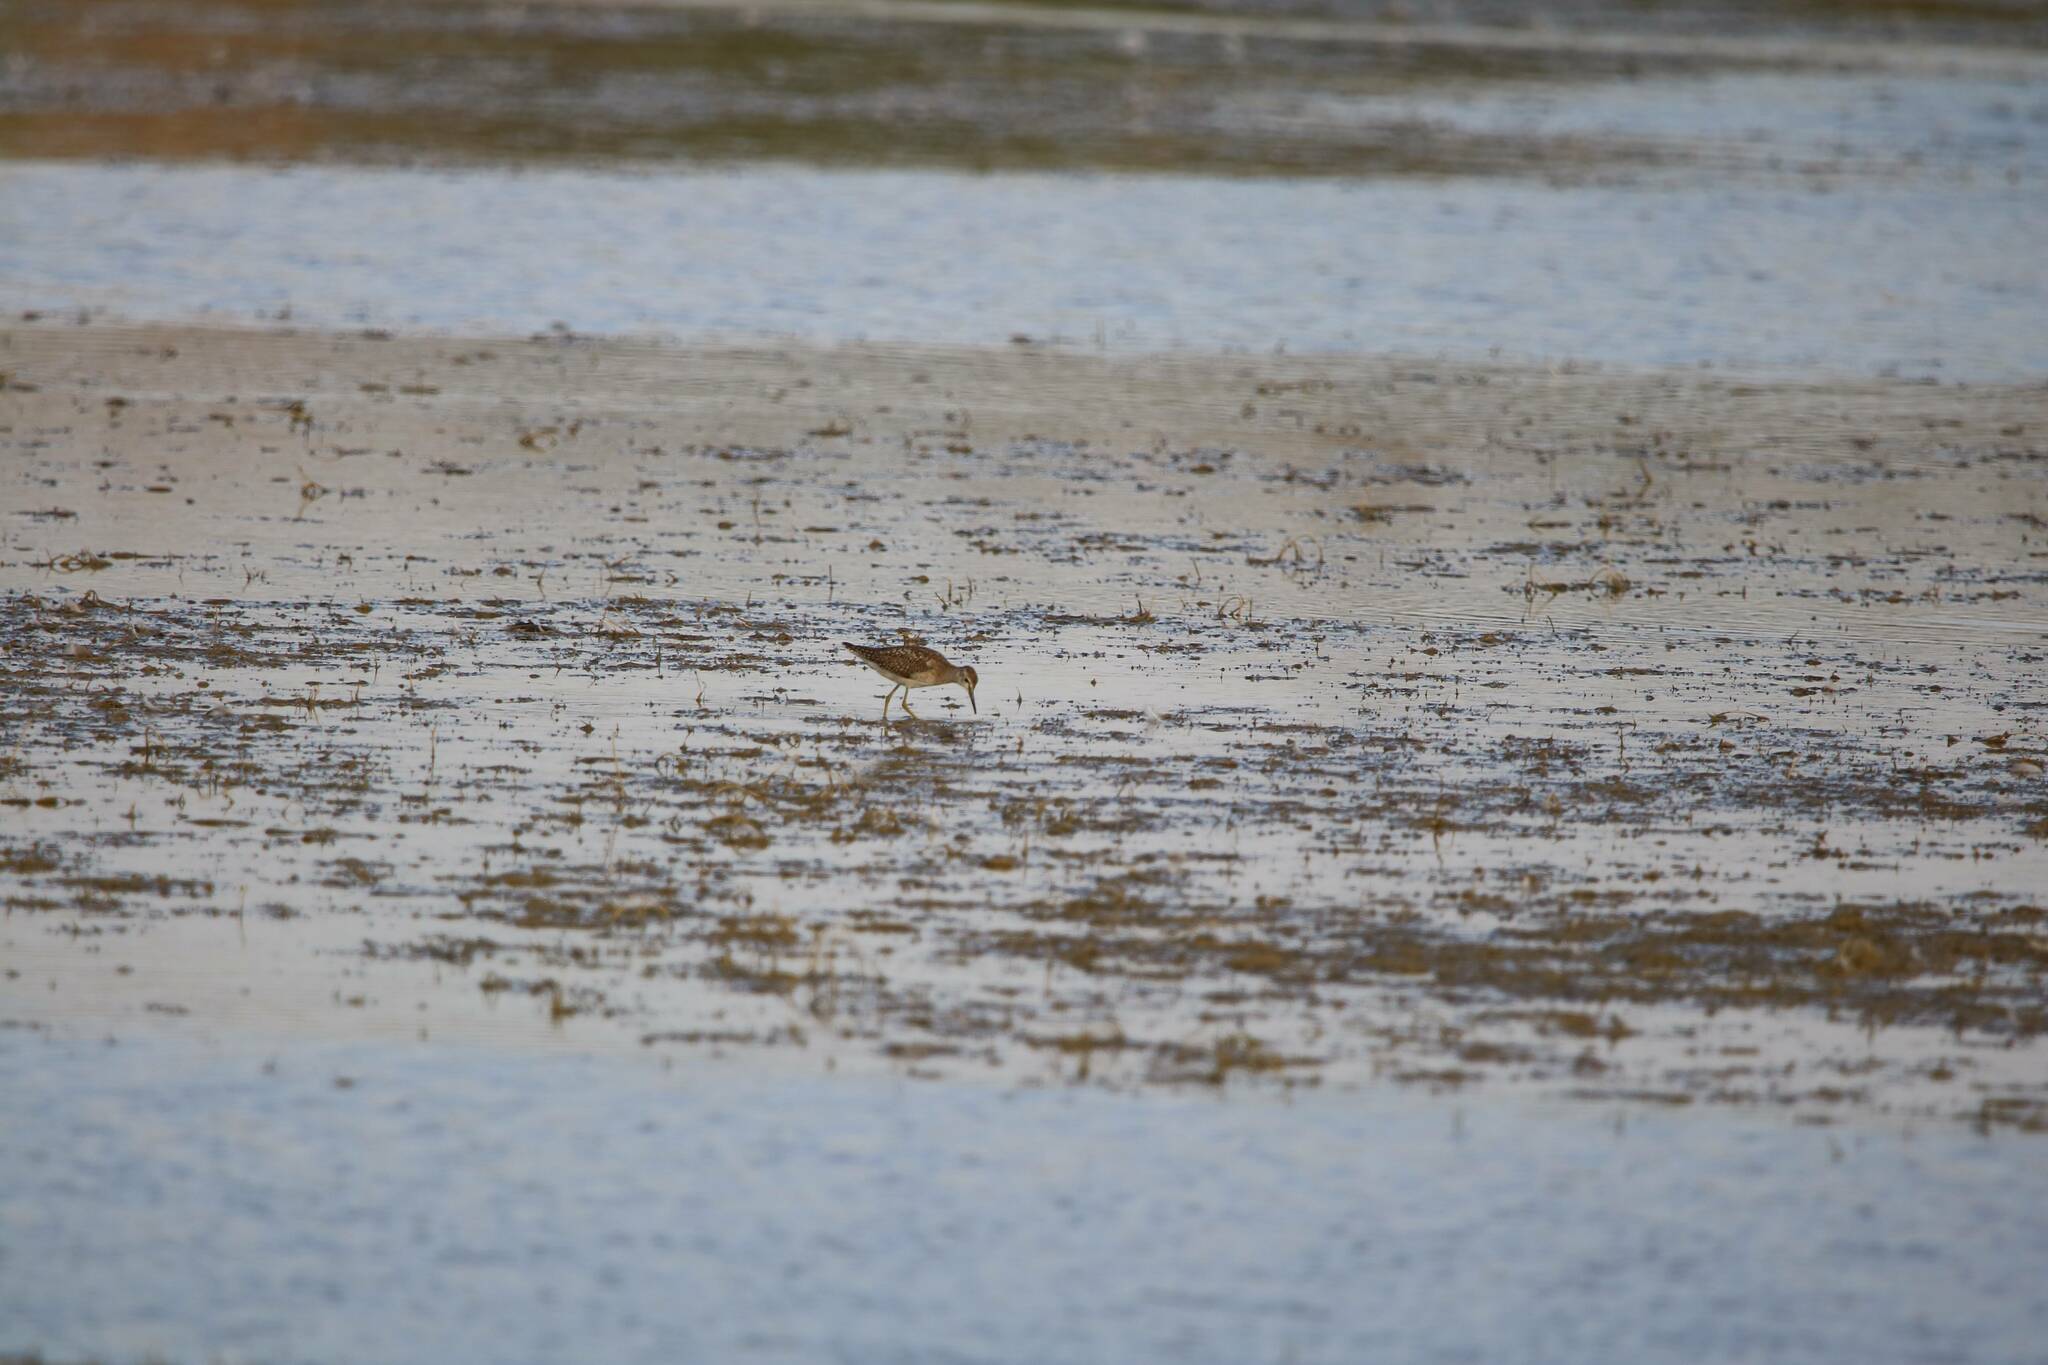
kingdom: Animalia
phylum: Chordata
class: Aves
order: Charadriiformes
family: Scolopacidae
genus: Tringa
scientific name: Tringa glareola
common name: Wood sandpiper
